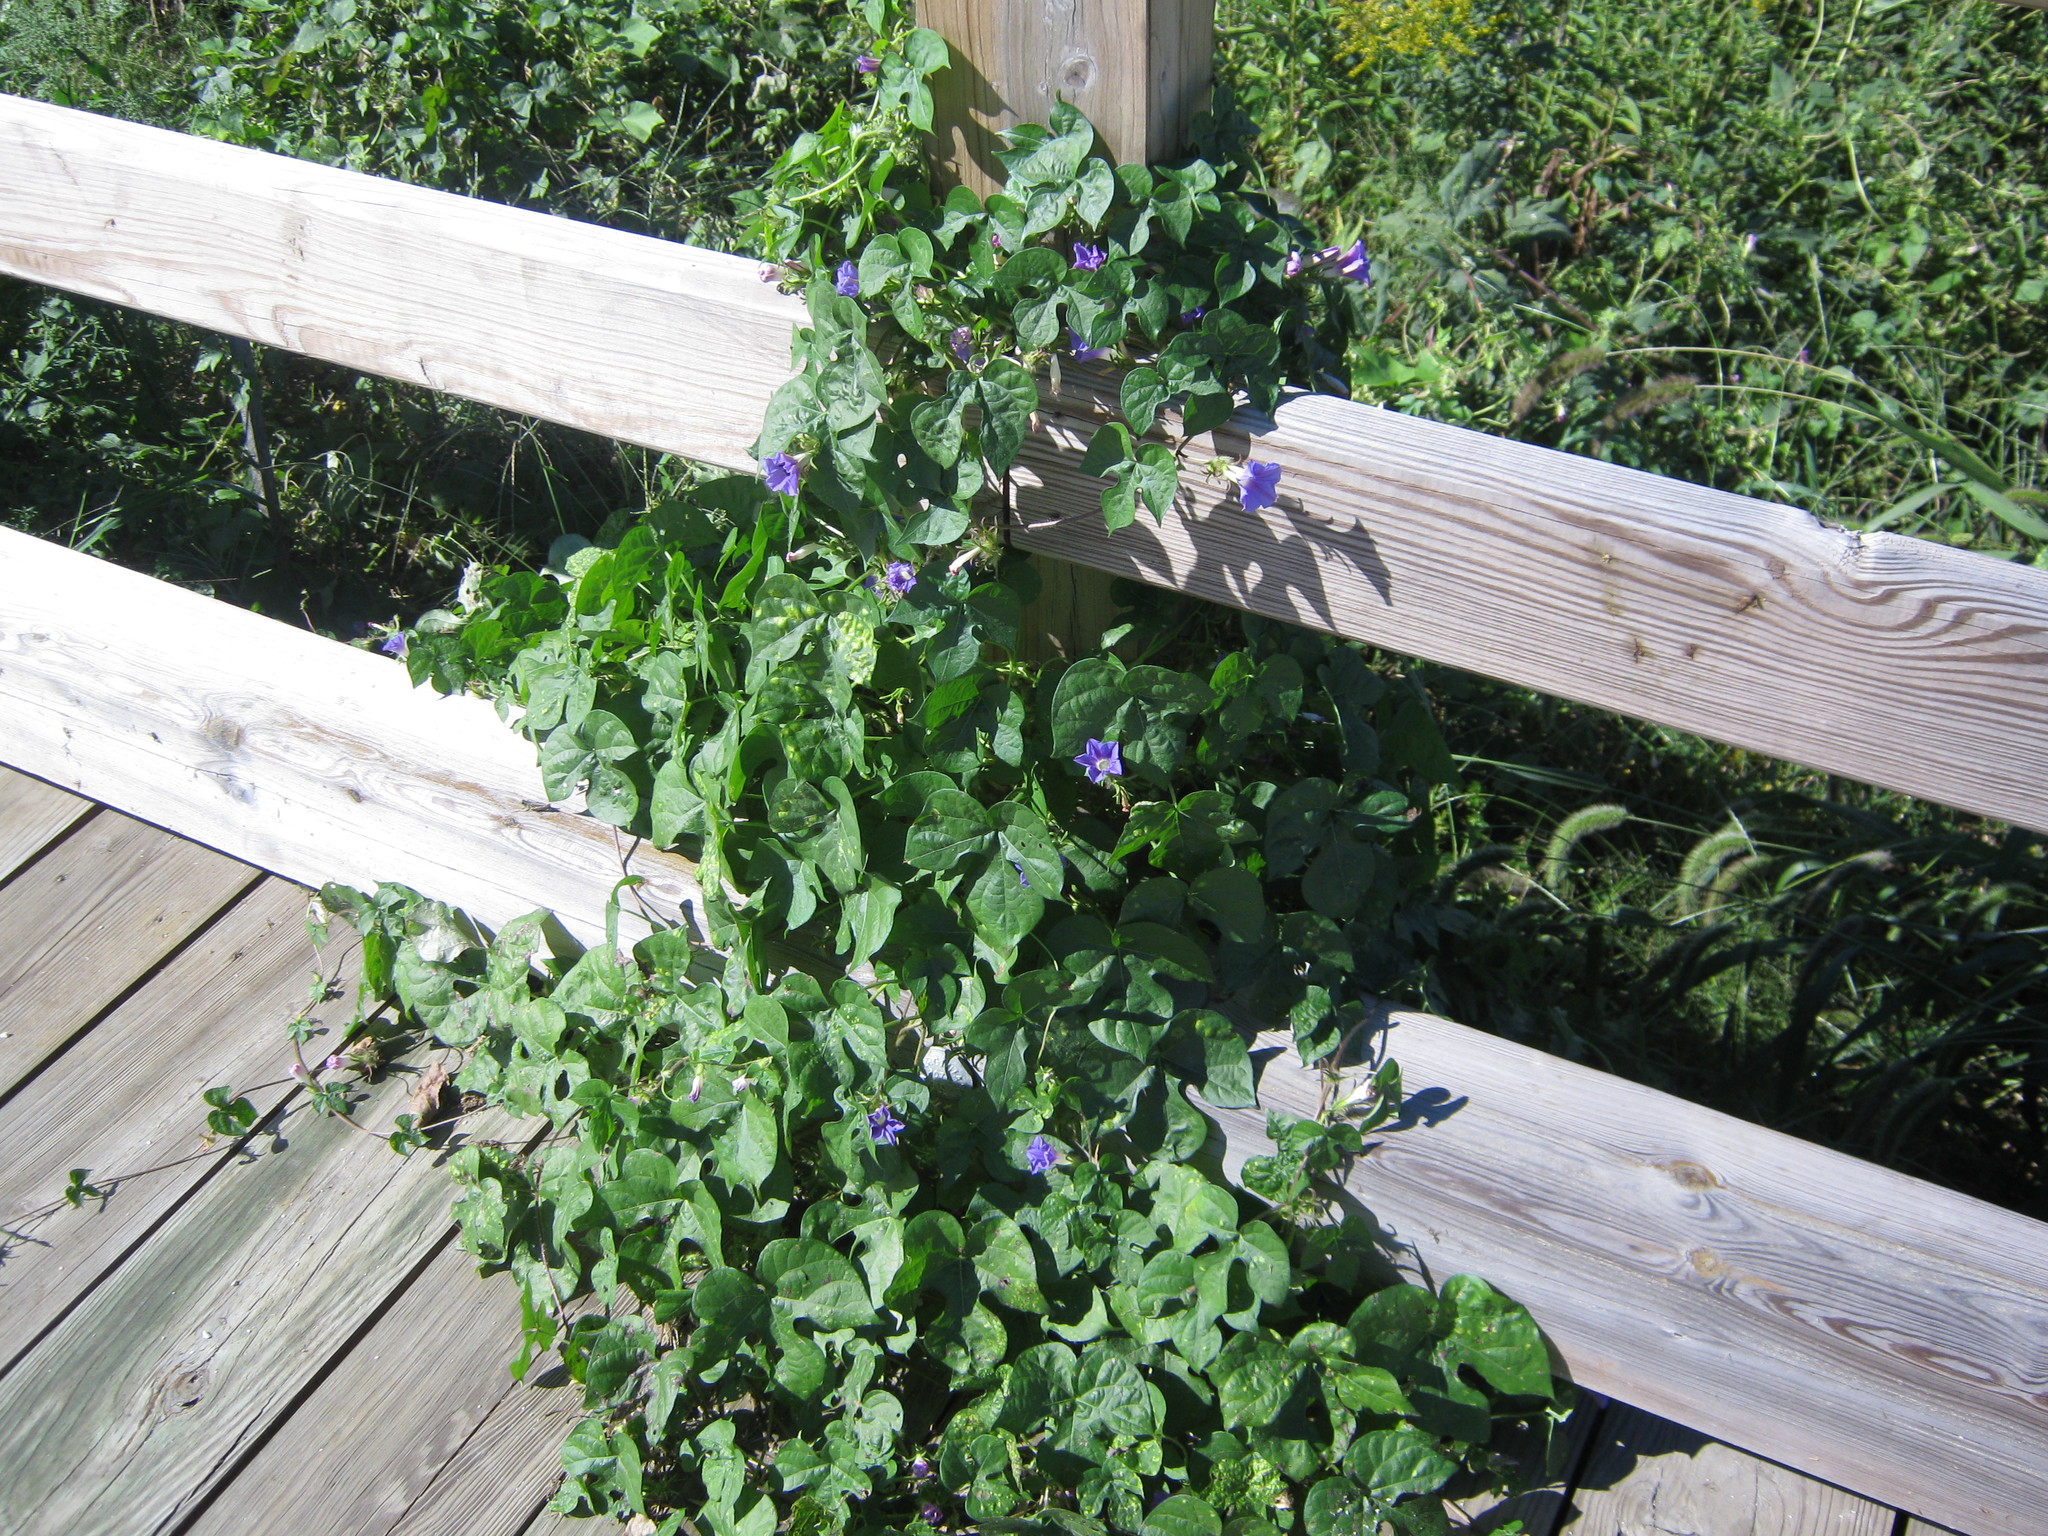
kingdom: Plantae
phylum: Tracheophyta
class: Magnoliopsida
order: Solanales
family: Convolvulaceae
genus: Ipomoea
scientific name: Ipomoea hederacea
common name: Ivy-leaved morning-glory
